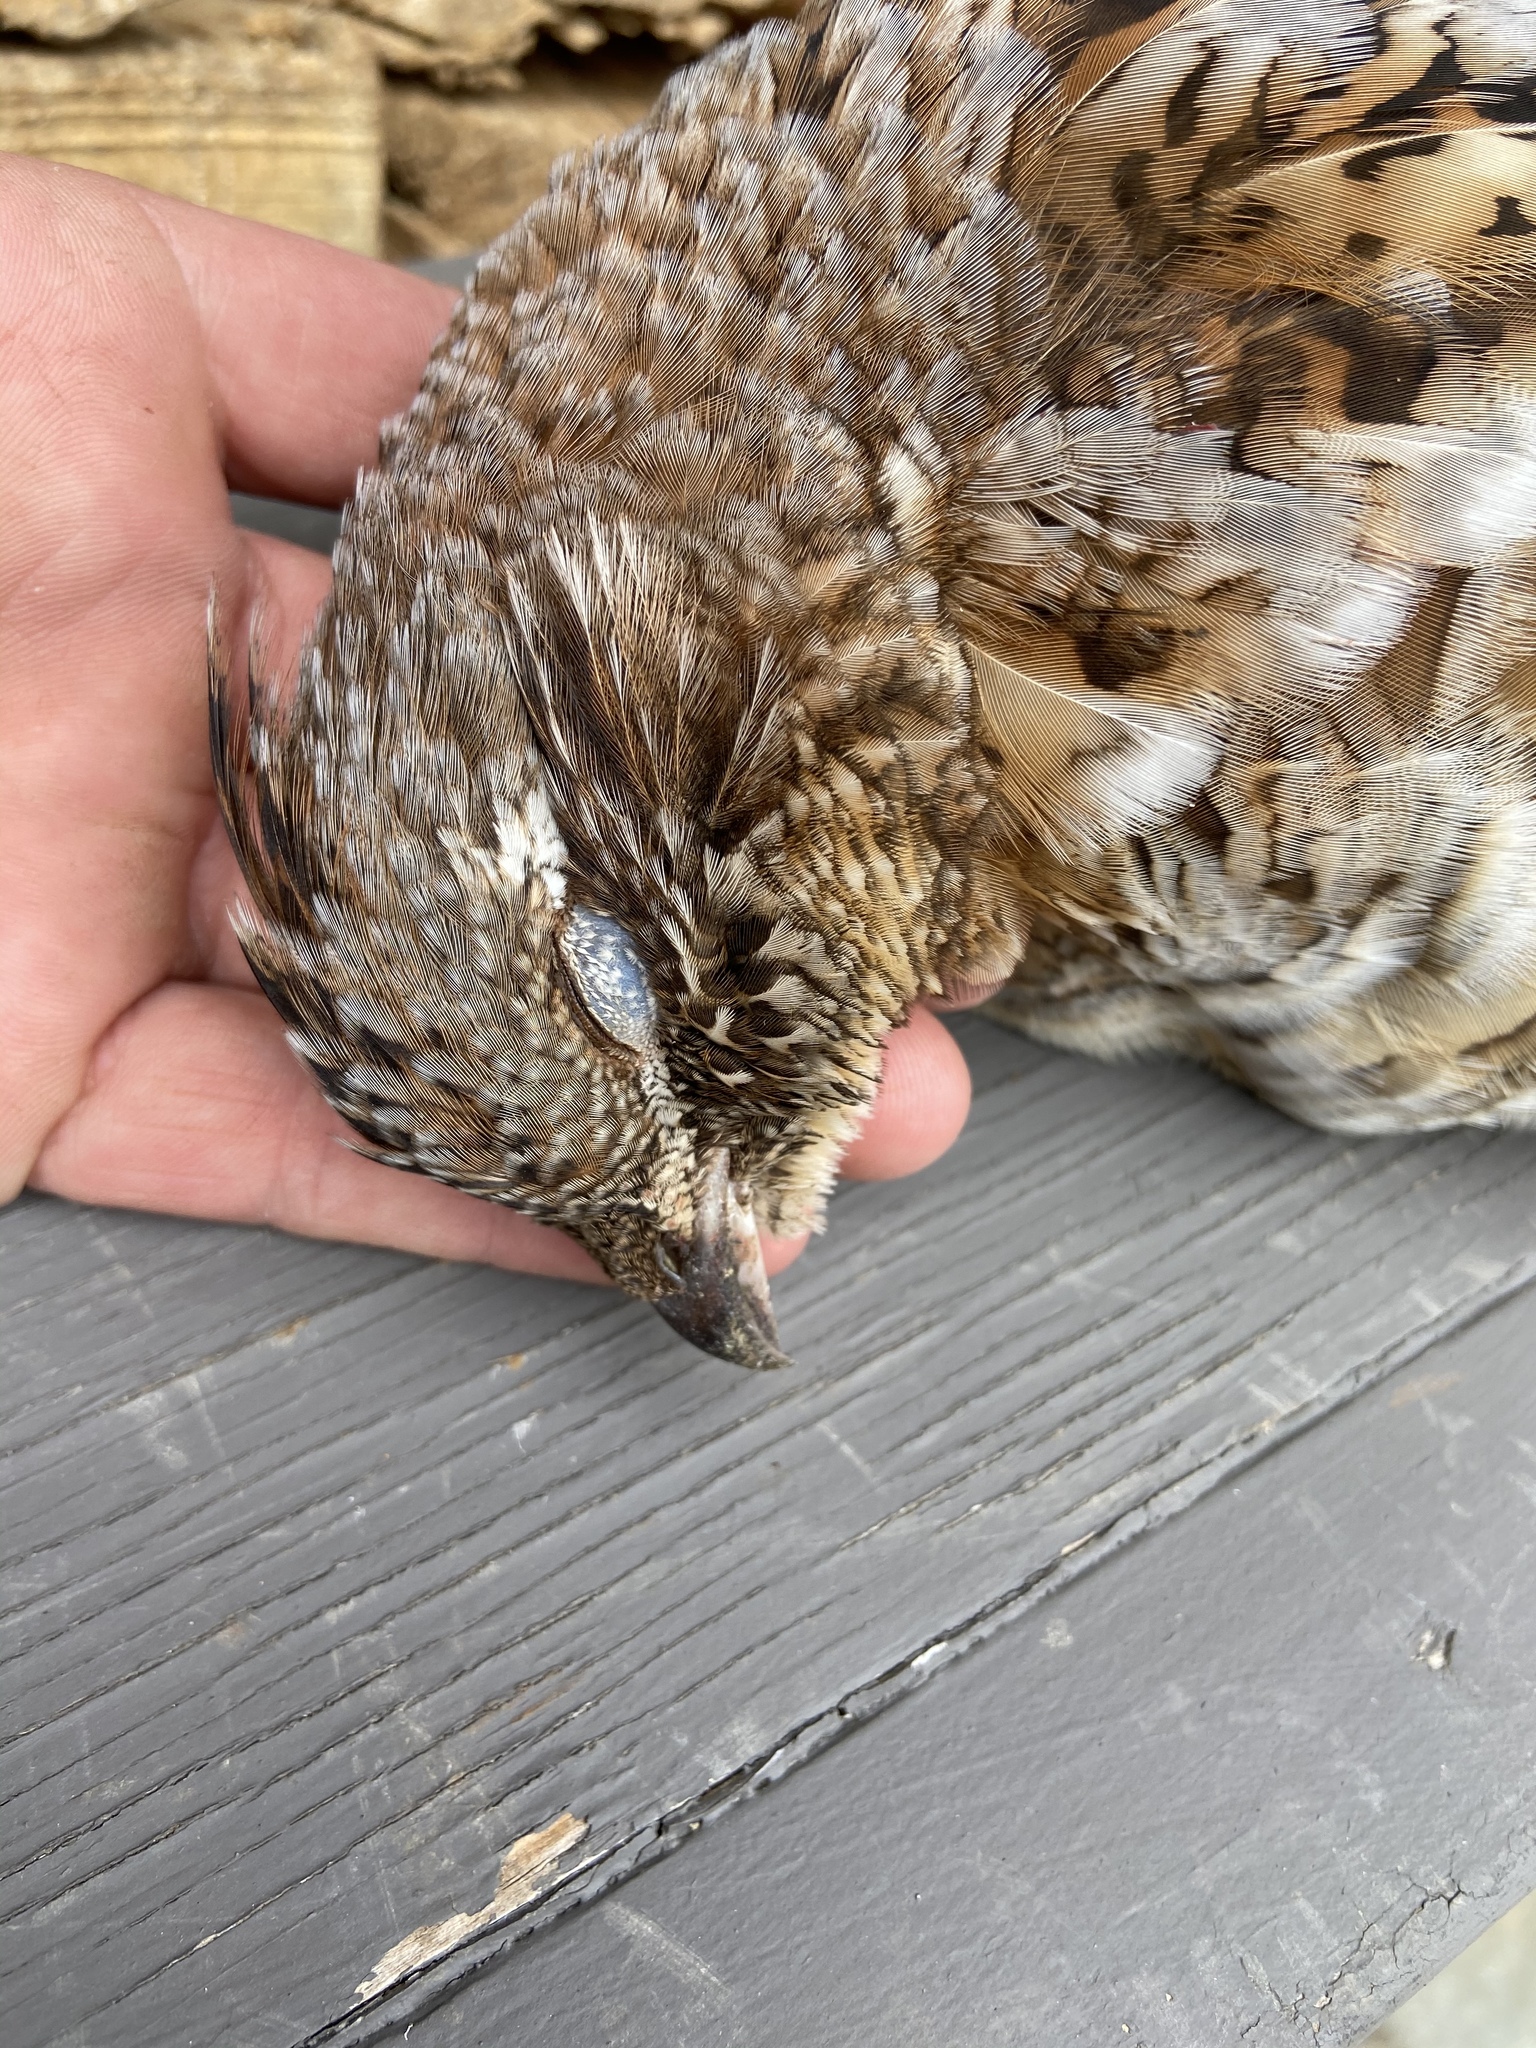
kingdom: Animalia
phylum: Chordata
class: Aves
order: Galliformes
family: Phasianidae
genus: Bonasa
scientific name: Bonasa umbellus
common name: Ruffed grouse
